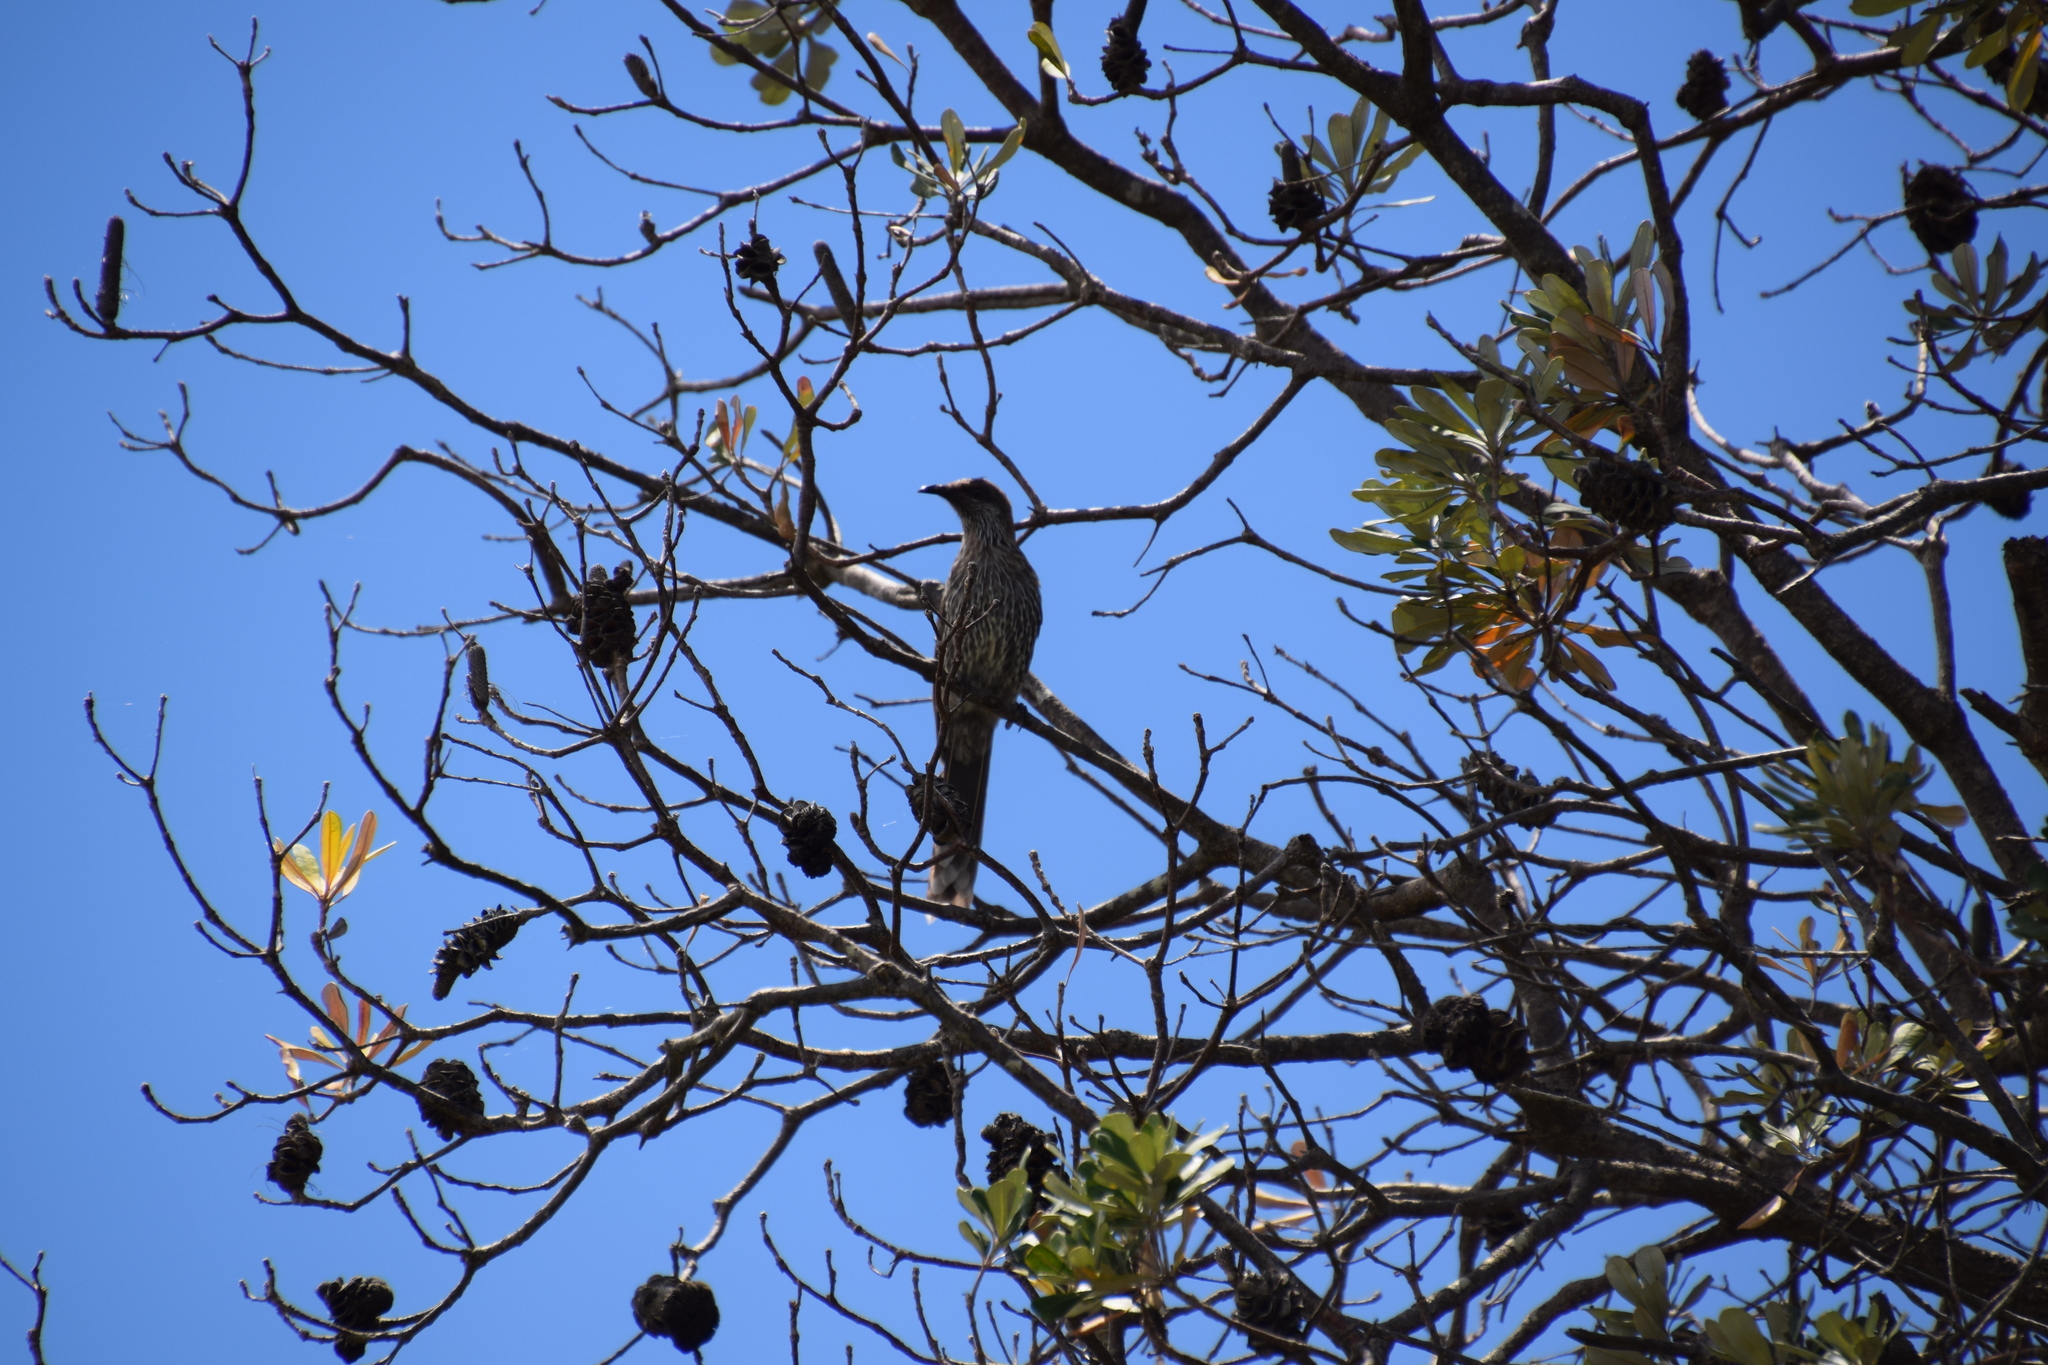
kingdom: Animalia
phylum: Chordata
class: Aves
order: Passeriformes
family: Meliphagidae
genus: Anthochaera
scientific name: Anthochaera chrysoptera
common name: Little wattlebird
